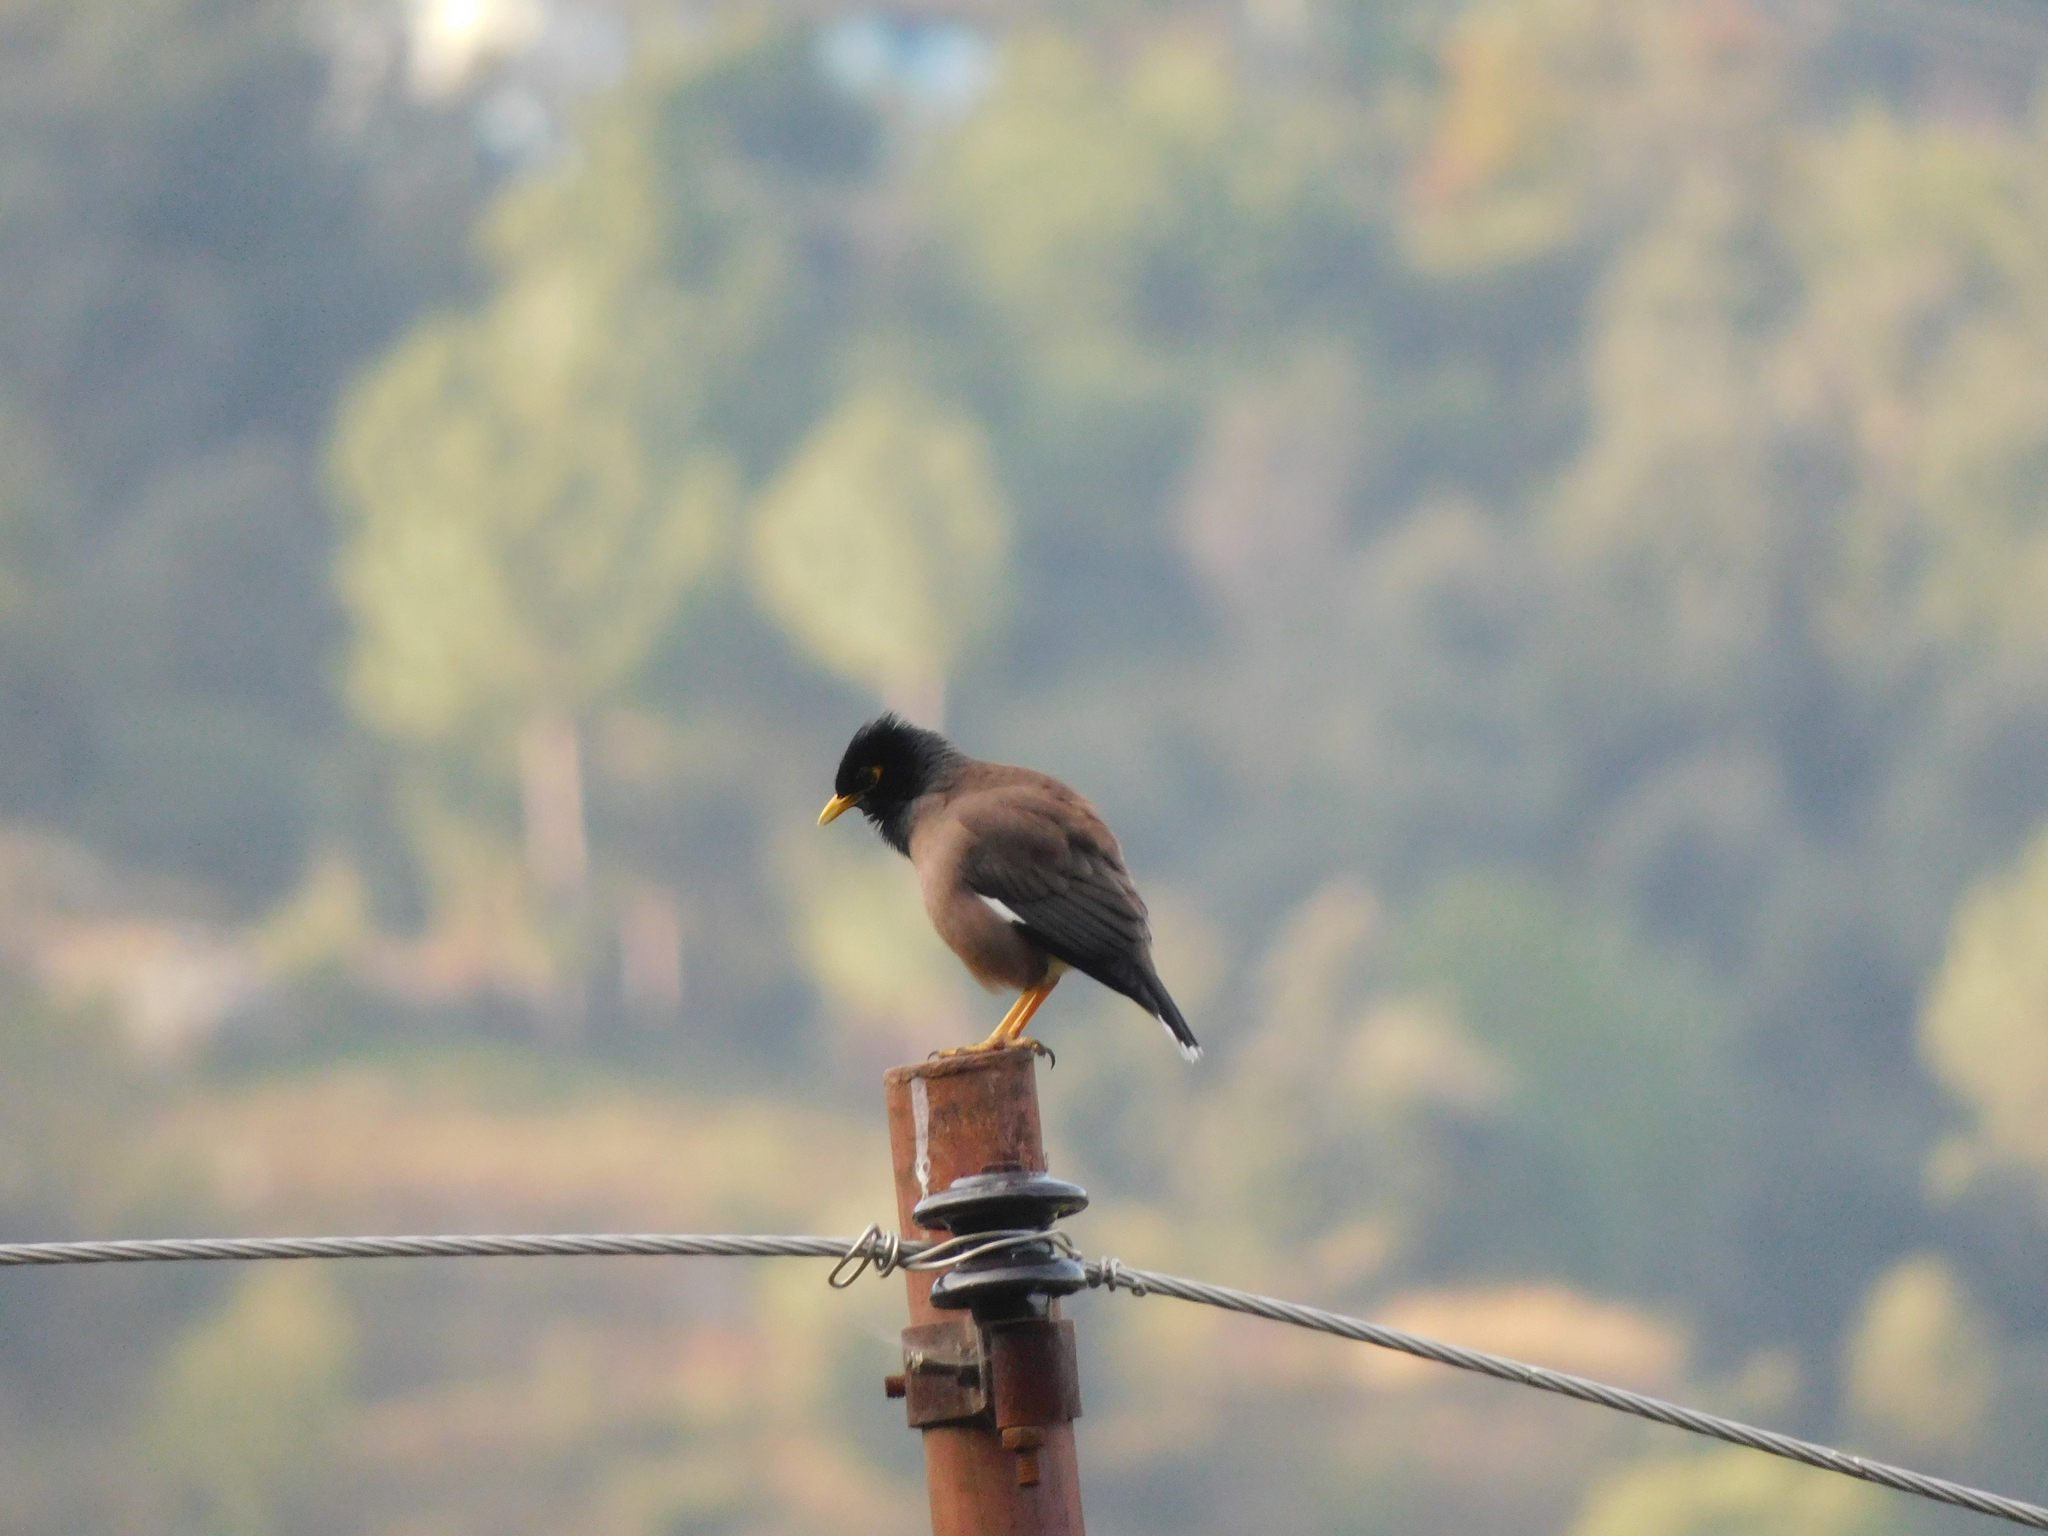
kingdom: Animalia
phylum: Chordata
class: Aves
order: Passeriformes
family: Sturnidae
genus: Acridotheres
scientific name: Acridotheres tristis
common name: Common myna
